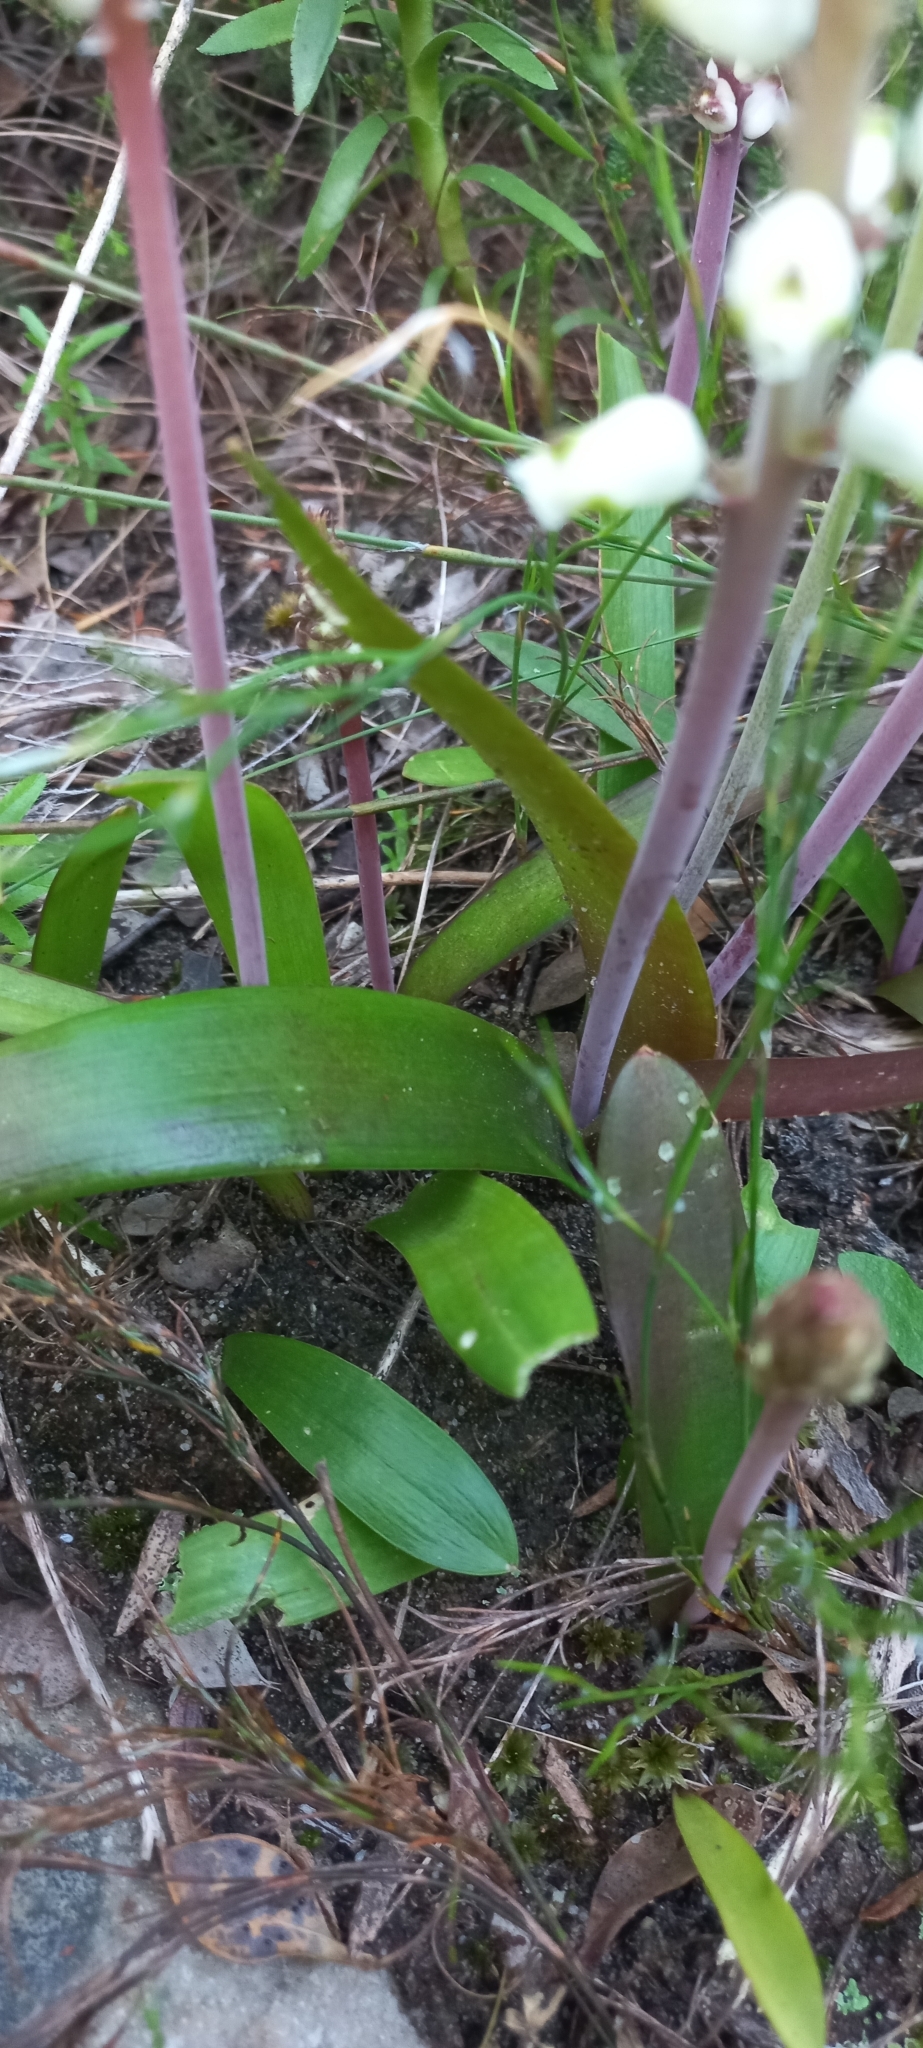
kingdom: Plantae
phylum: Tracheophyta
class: Liliopsida
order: Asparagales
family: Asparagaceae
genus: Lachenalia
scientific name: Lachenalia peersii
